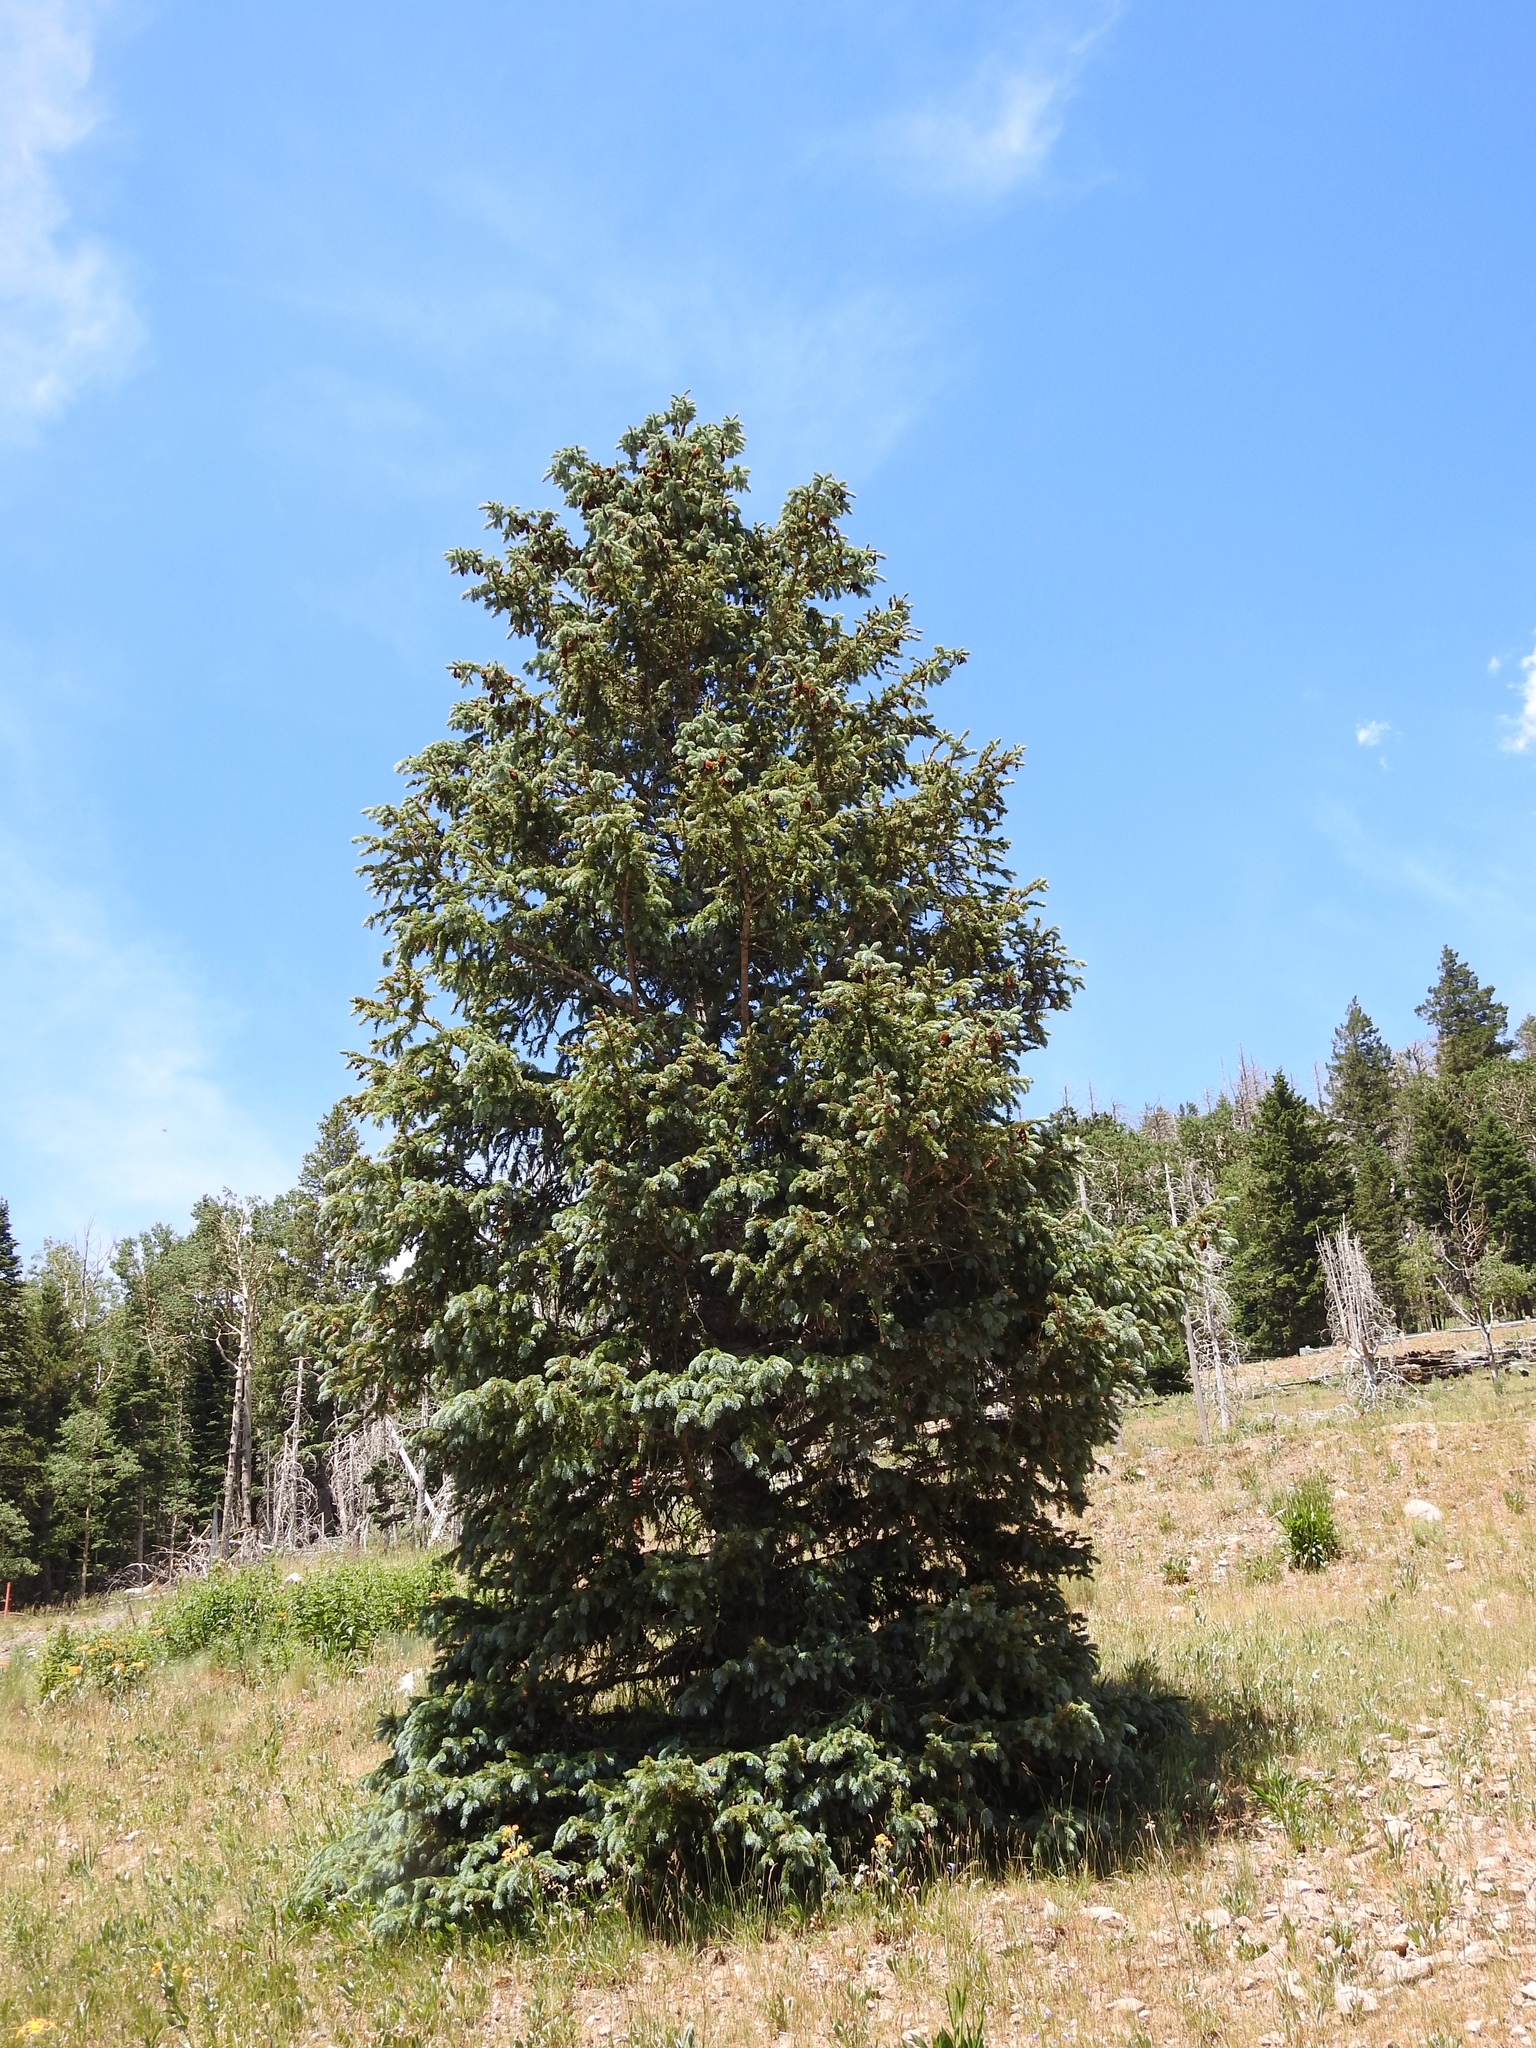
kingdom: Plantae
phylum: Tracheophyta
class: Pinopsida
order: Pinales
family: Pinaceae
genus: Picea
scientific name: Picea engelmannii
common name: Engelmann spruce
